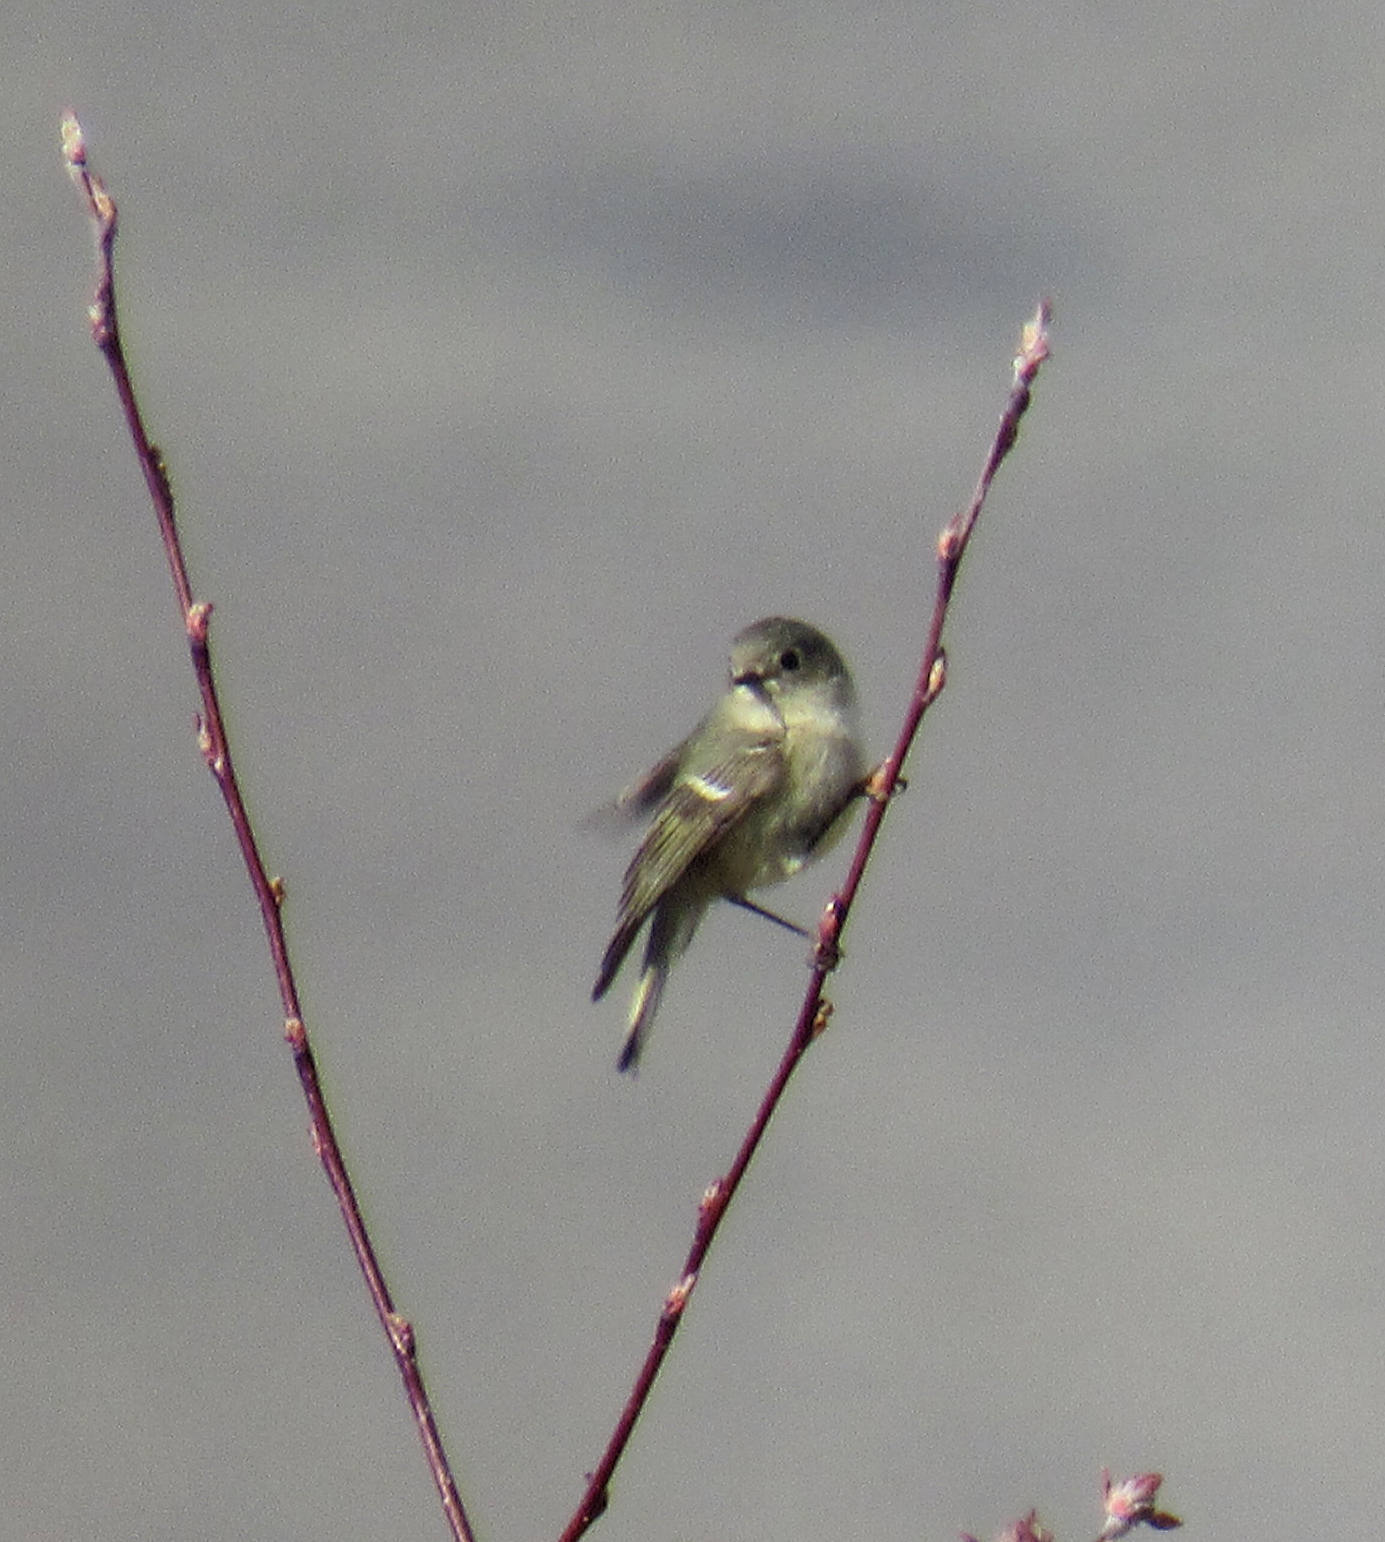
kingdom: Animalia
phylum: Chordata
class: Aves
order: Passeriformes
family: Regulidae
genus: Regulus
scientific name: Regulus calendula
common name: Ruby-crowned kinglet
